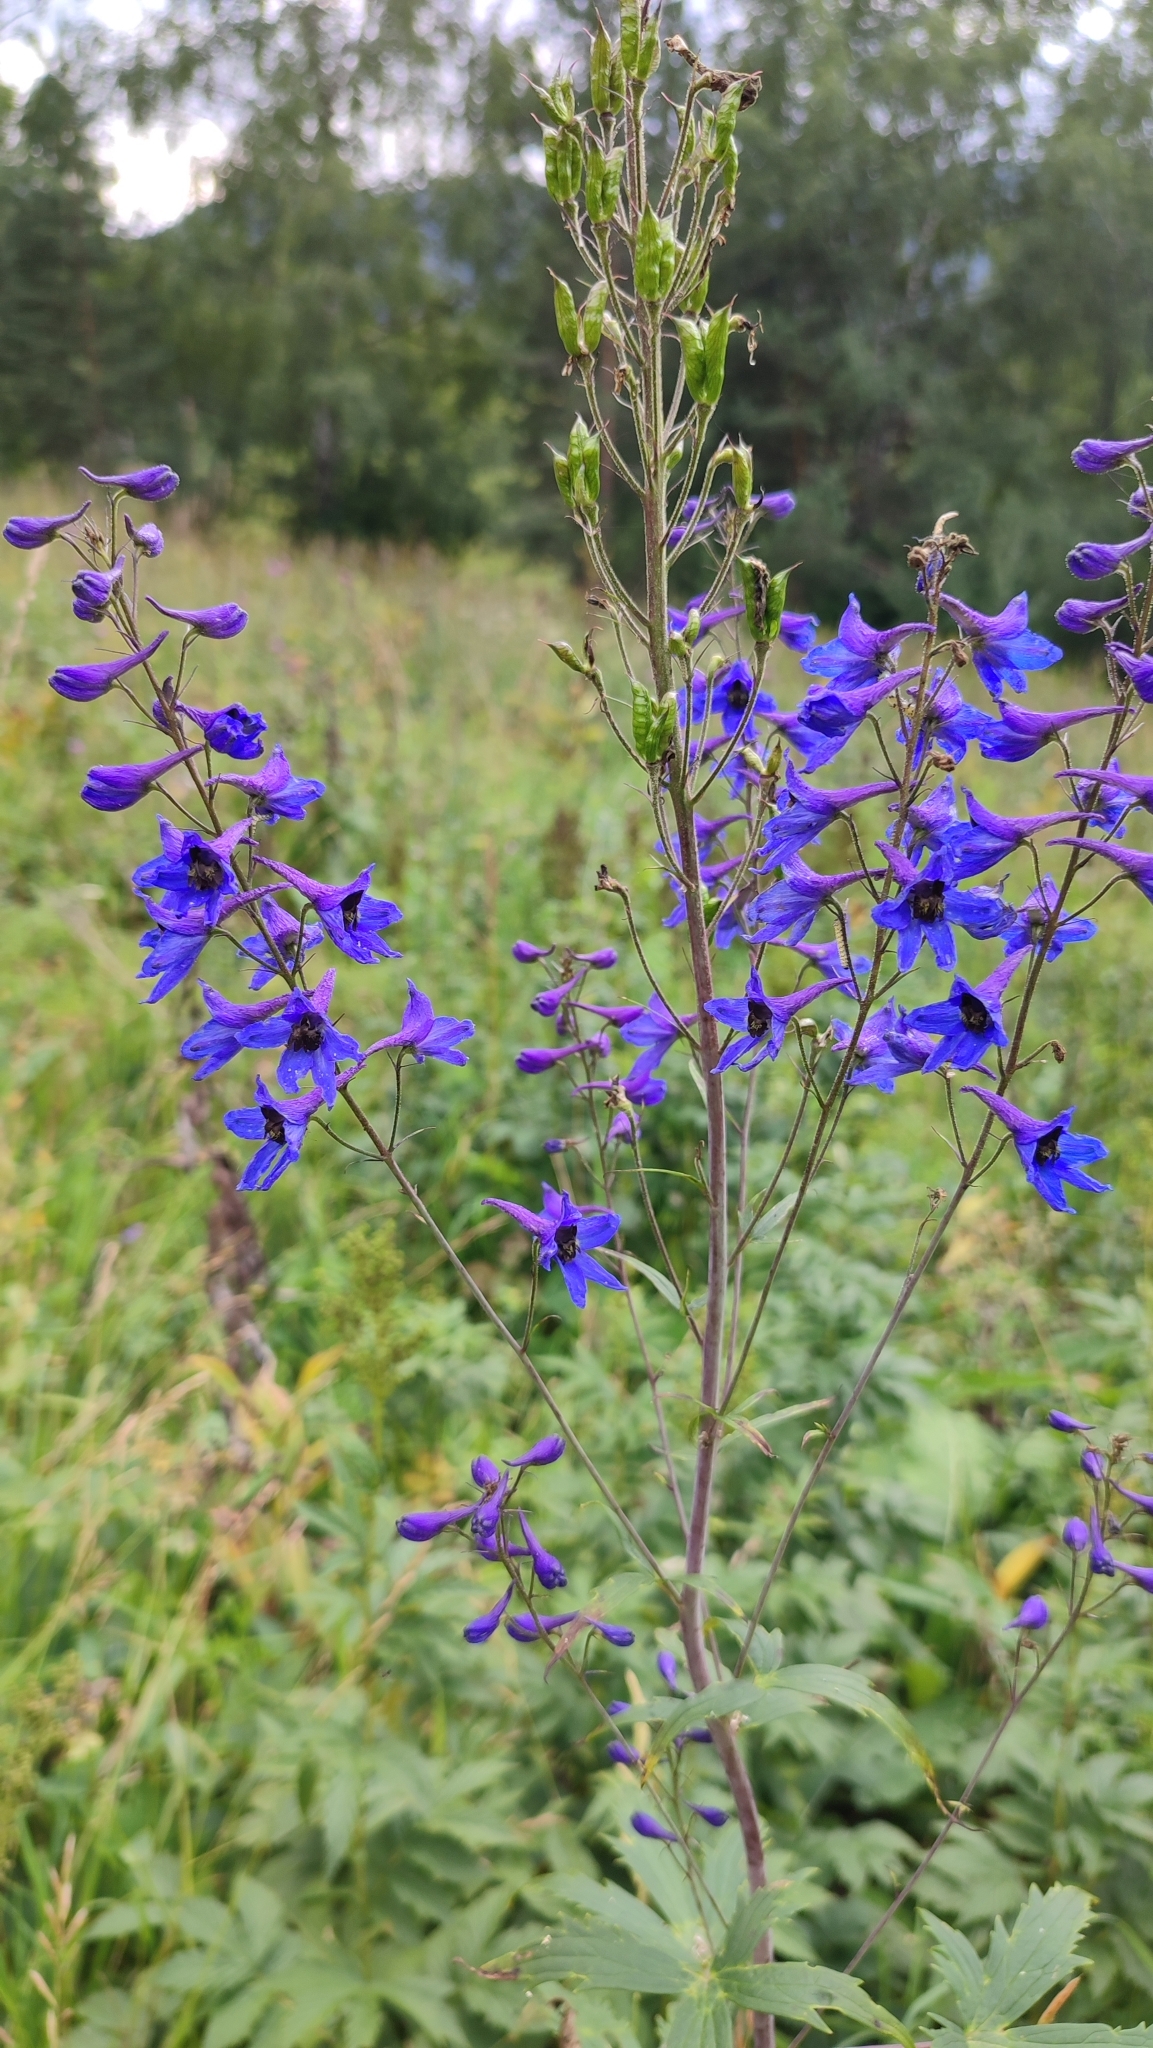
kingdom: Plantae
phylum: Tracheophyta
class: Magnoliopsida
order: Ranunculales
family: Ranunculaceae
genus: Delphinium
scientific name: Delphinium elatum
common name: Candle larkspur
